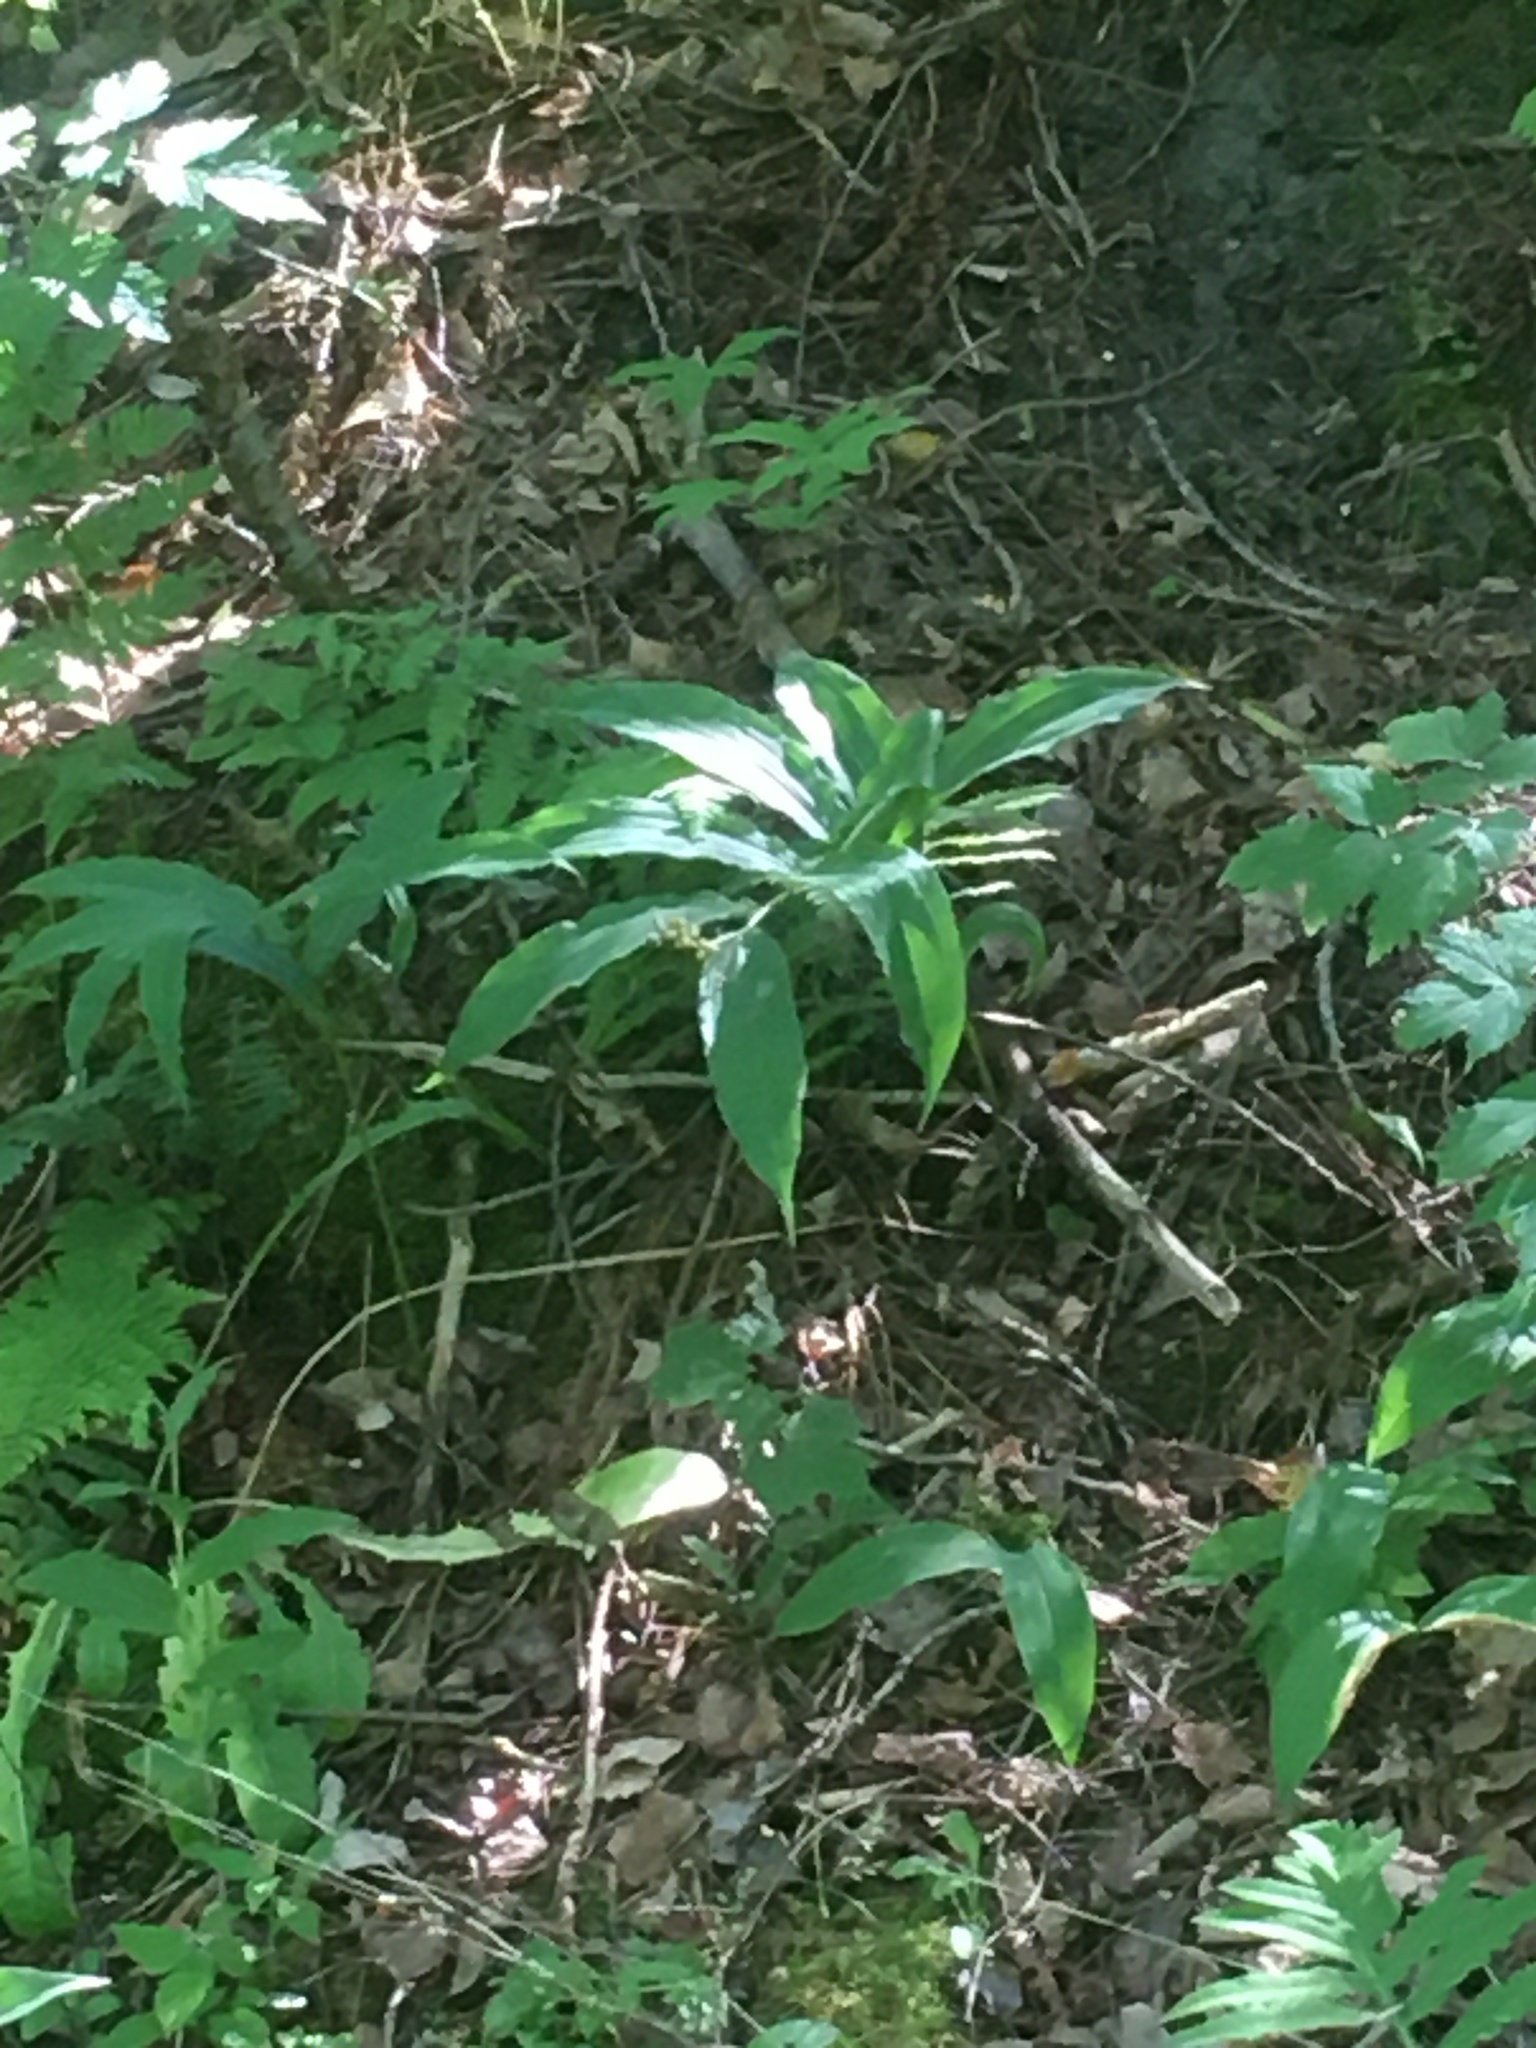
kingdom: Plantae
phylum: Tracheophyta
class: Liliopsida
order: Asparagales
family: Asparagaceae
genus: Maianthemum
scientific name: Maianthemum racemosum
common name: False spikenard
